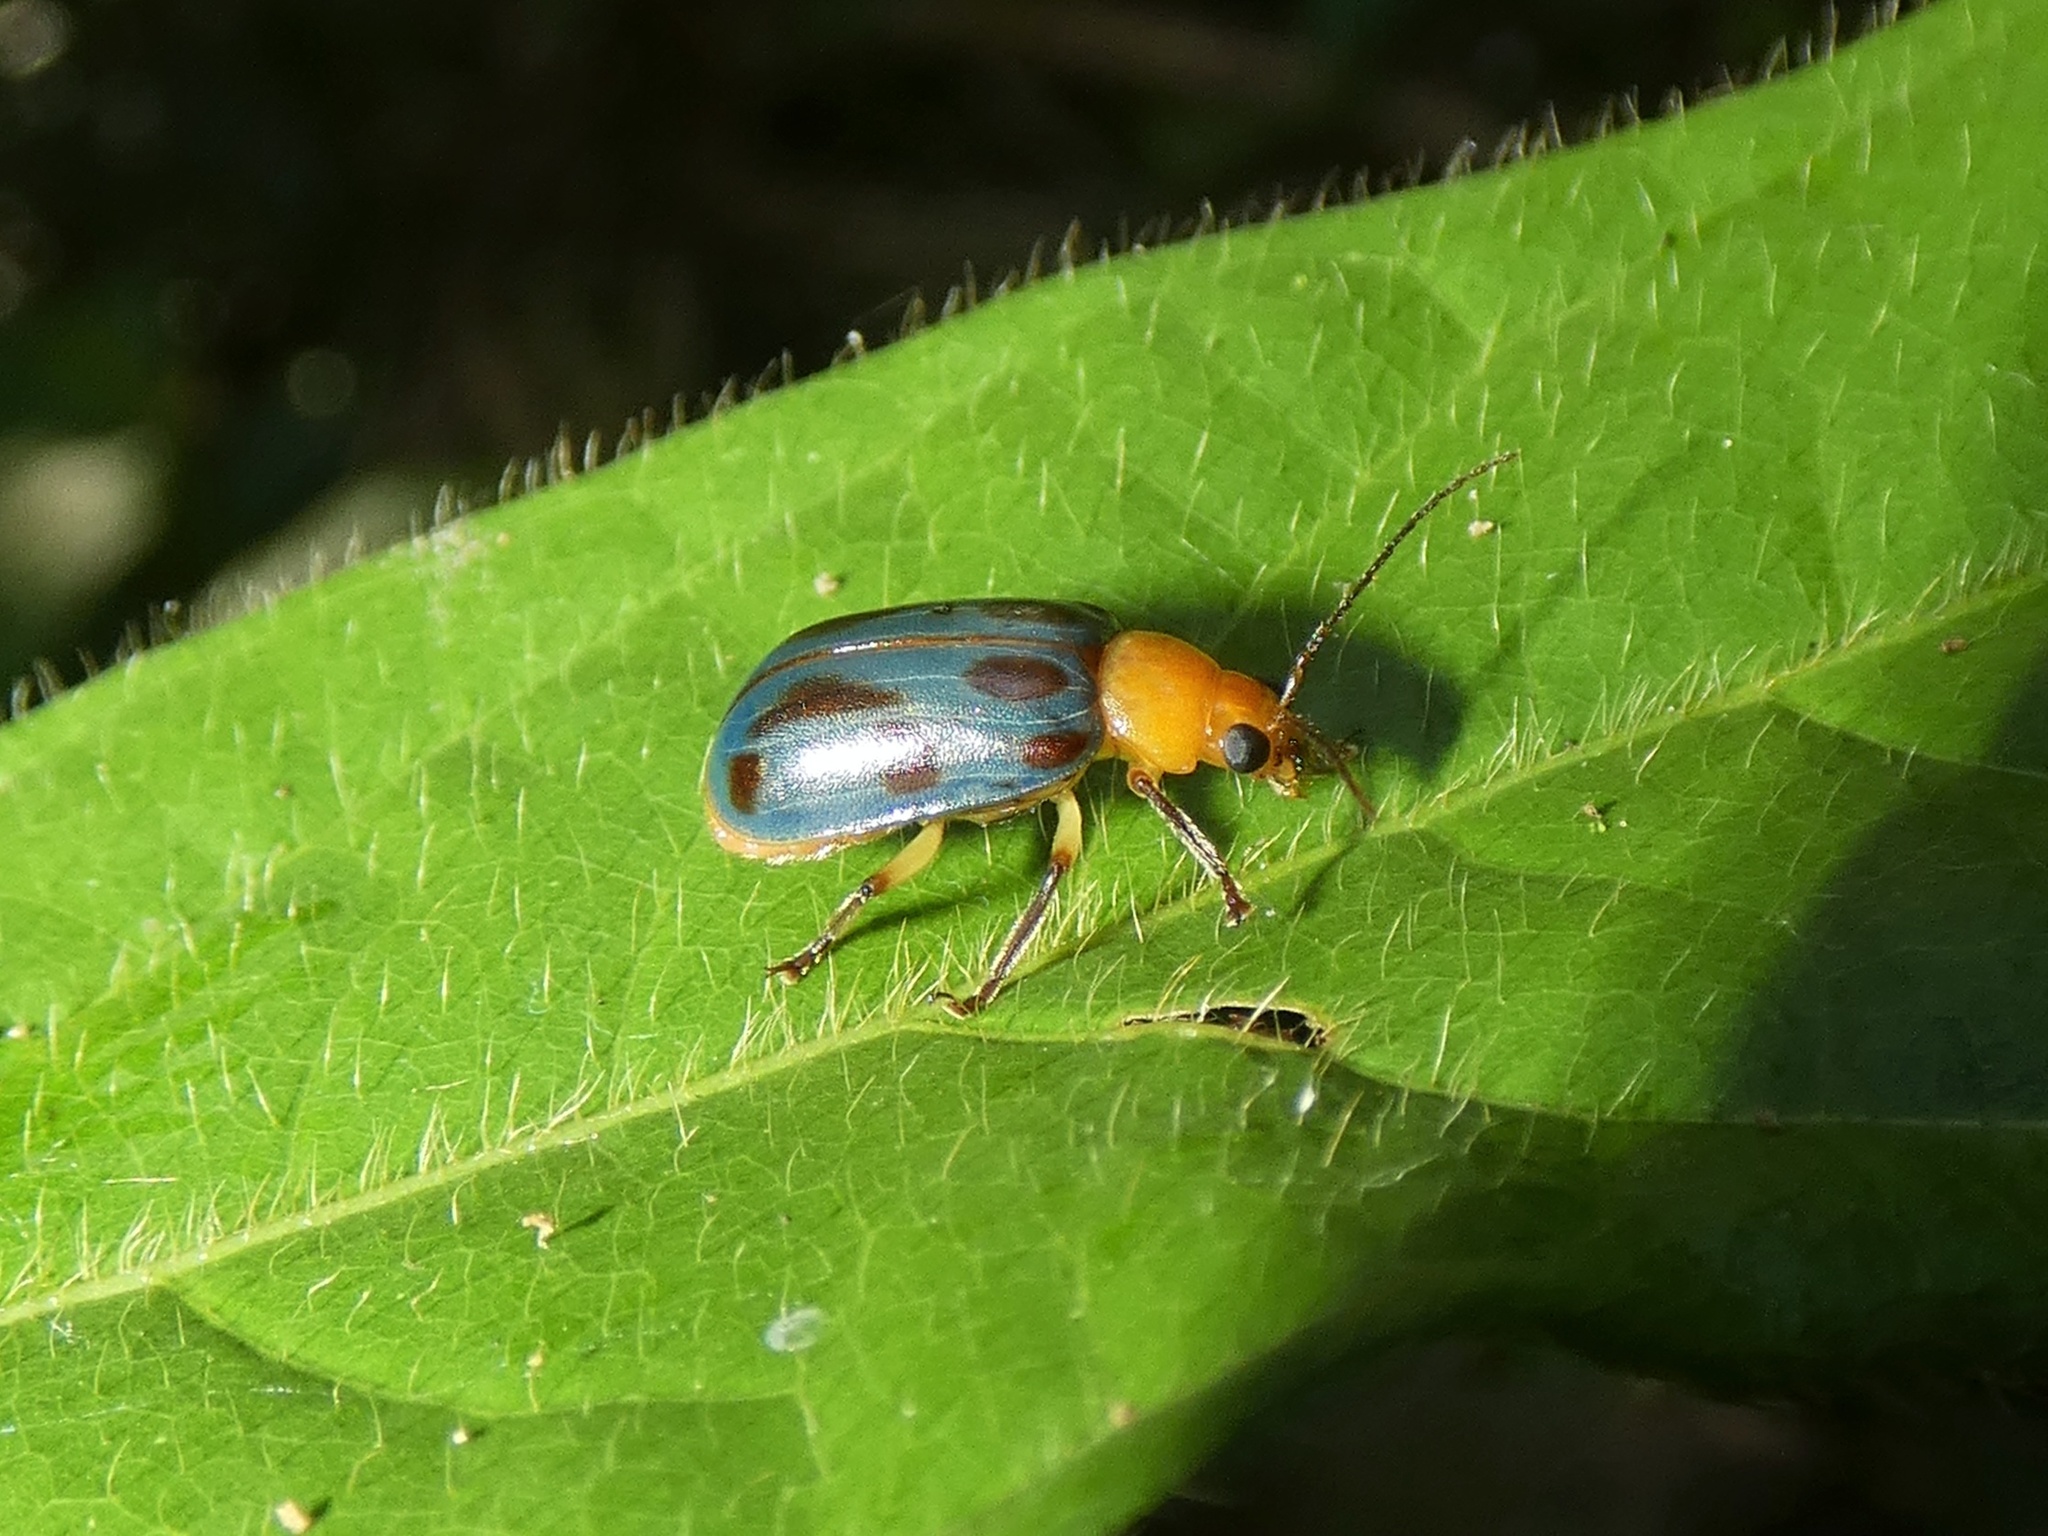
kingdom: Animalia
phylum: Arthropoda
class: Insecta
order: Coleoptera
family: Chrysomelidae
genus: Exora
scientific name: Exora obsoleta
